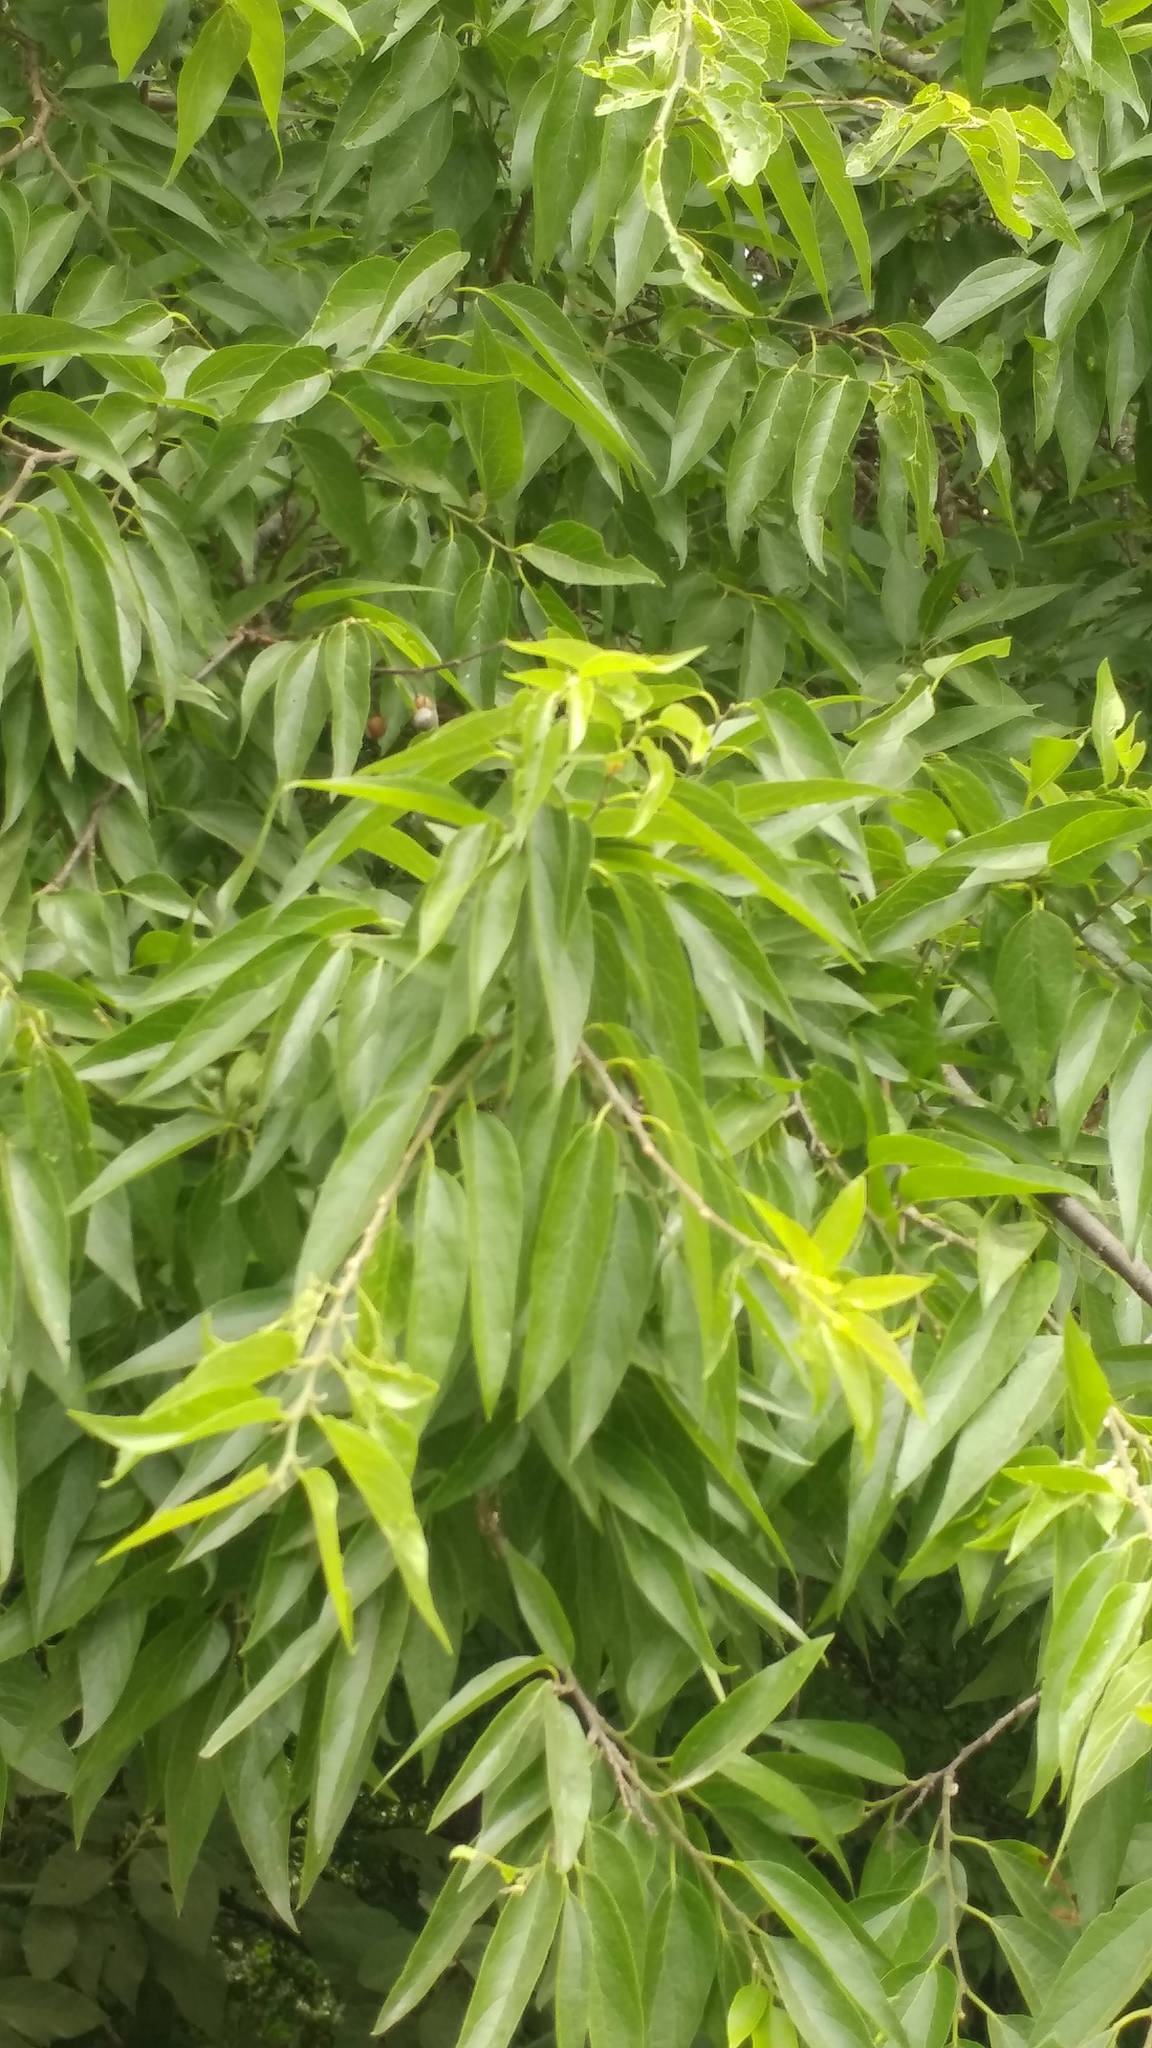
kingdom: Plantae
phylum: Tracheophyta
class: Magnoliopsida
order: Rosales
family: Cannabaceae
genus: Celtis
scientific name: Celtis laevigata
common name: Sugarberry
